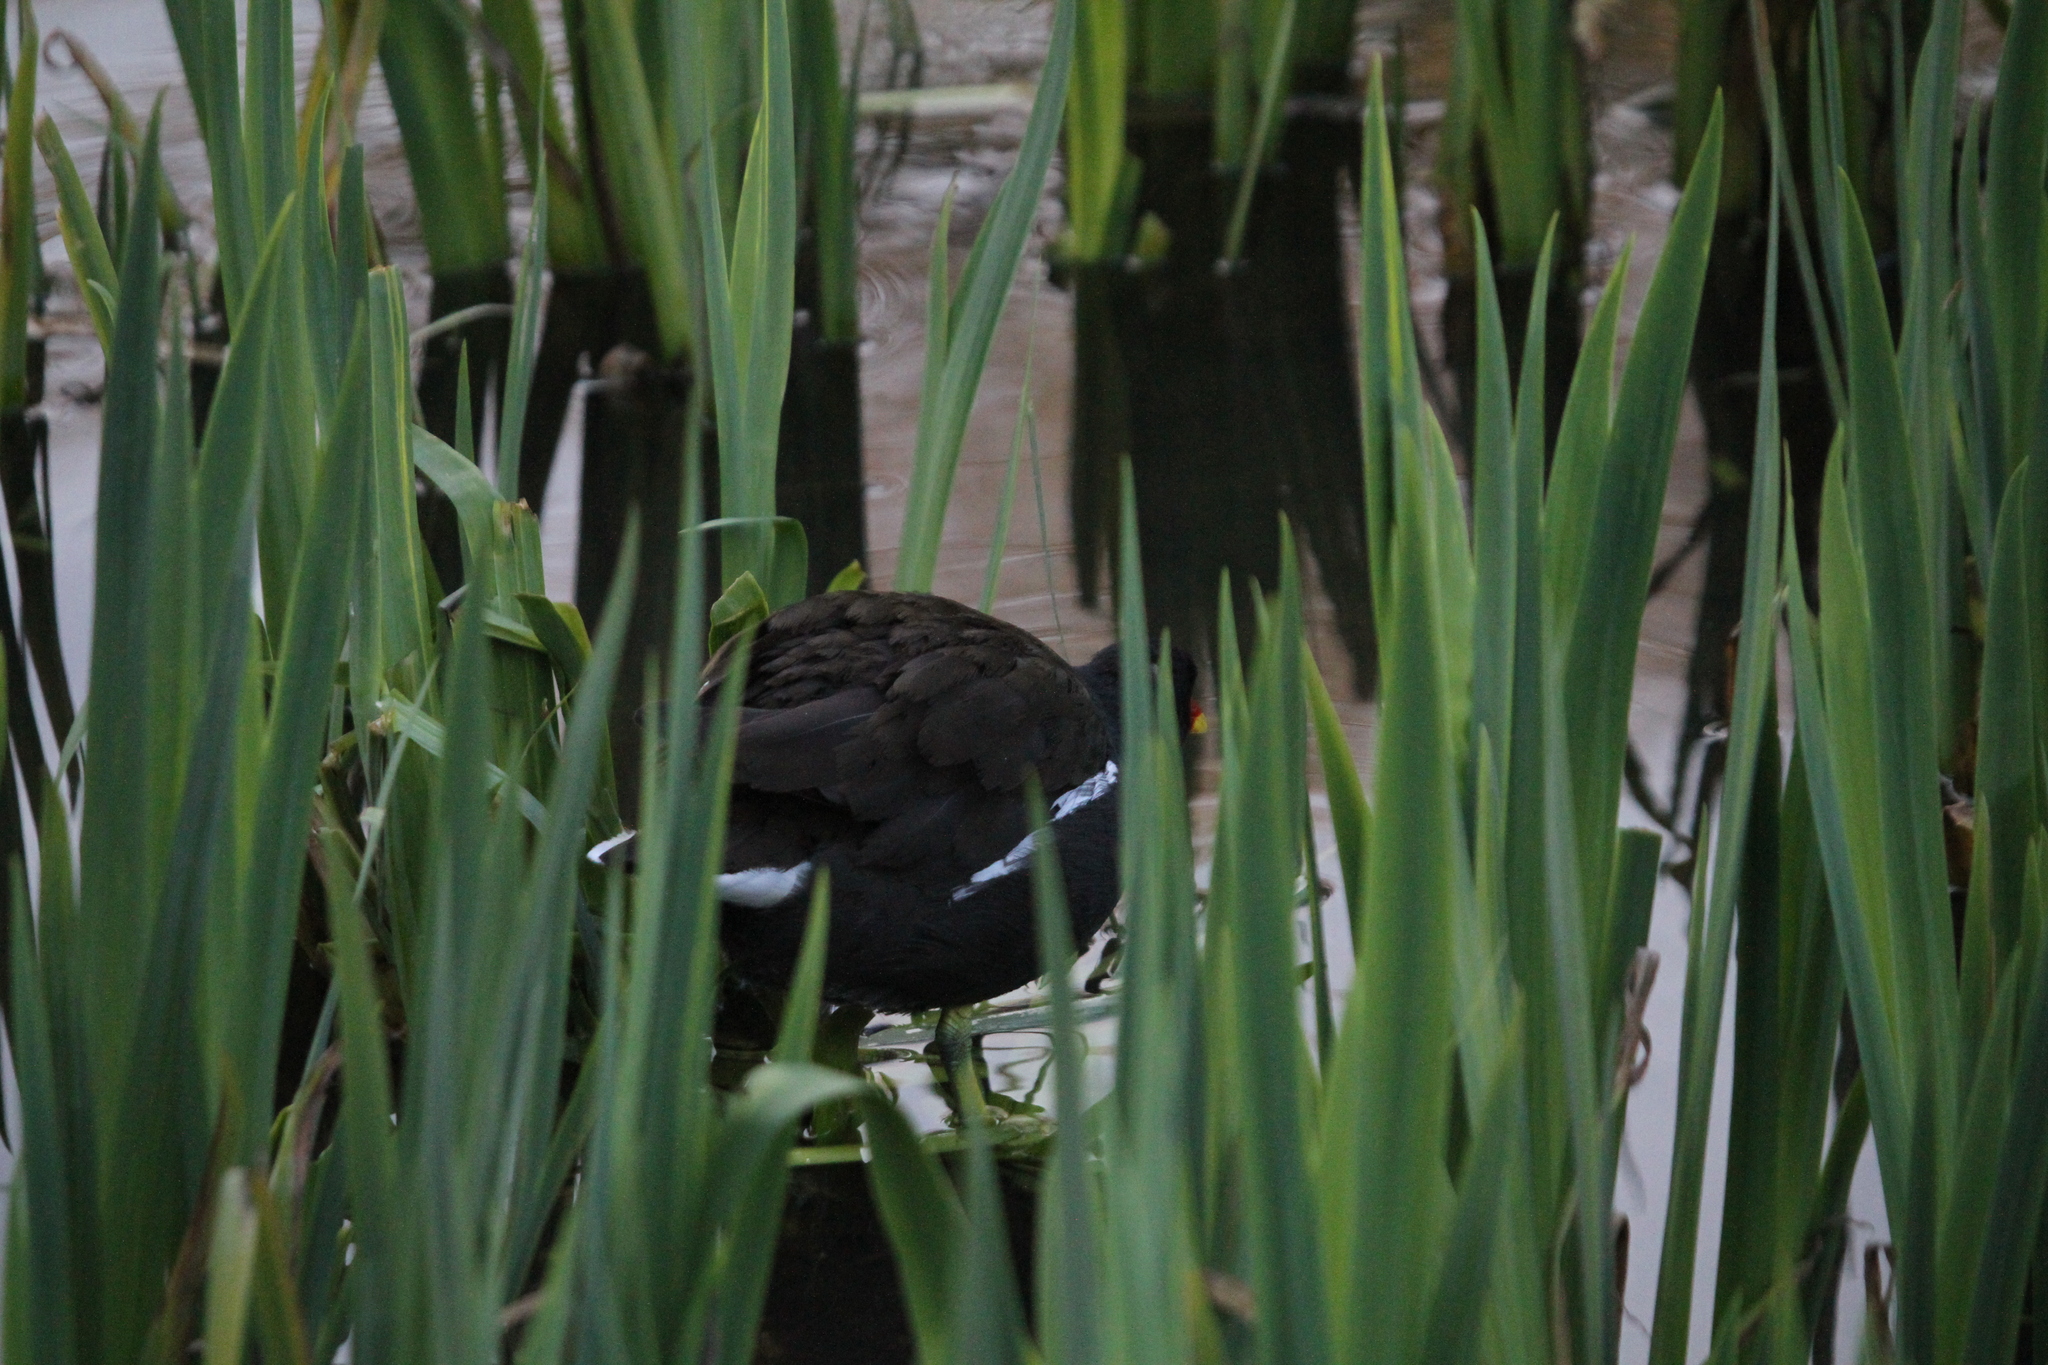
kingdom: Animalia
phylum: Chordata
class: Aves
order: Gruiformes
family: Rallidae
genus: Gallinula
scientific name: Gallinula chloropus
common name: Common moorhen
